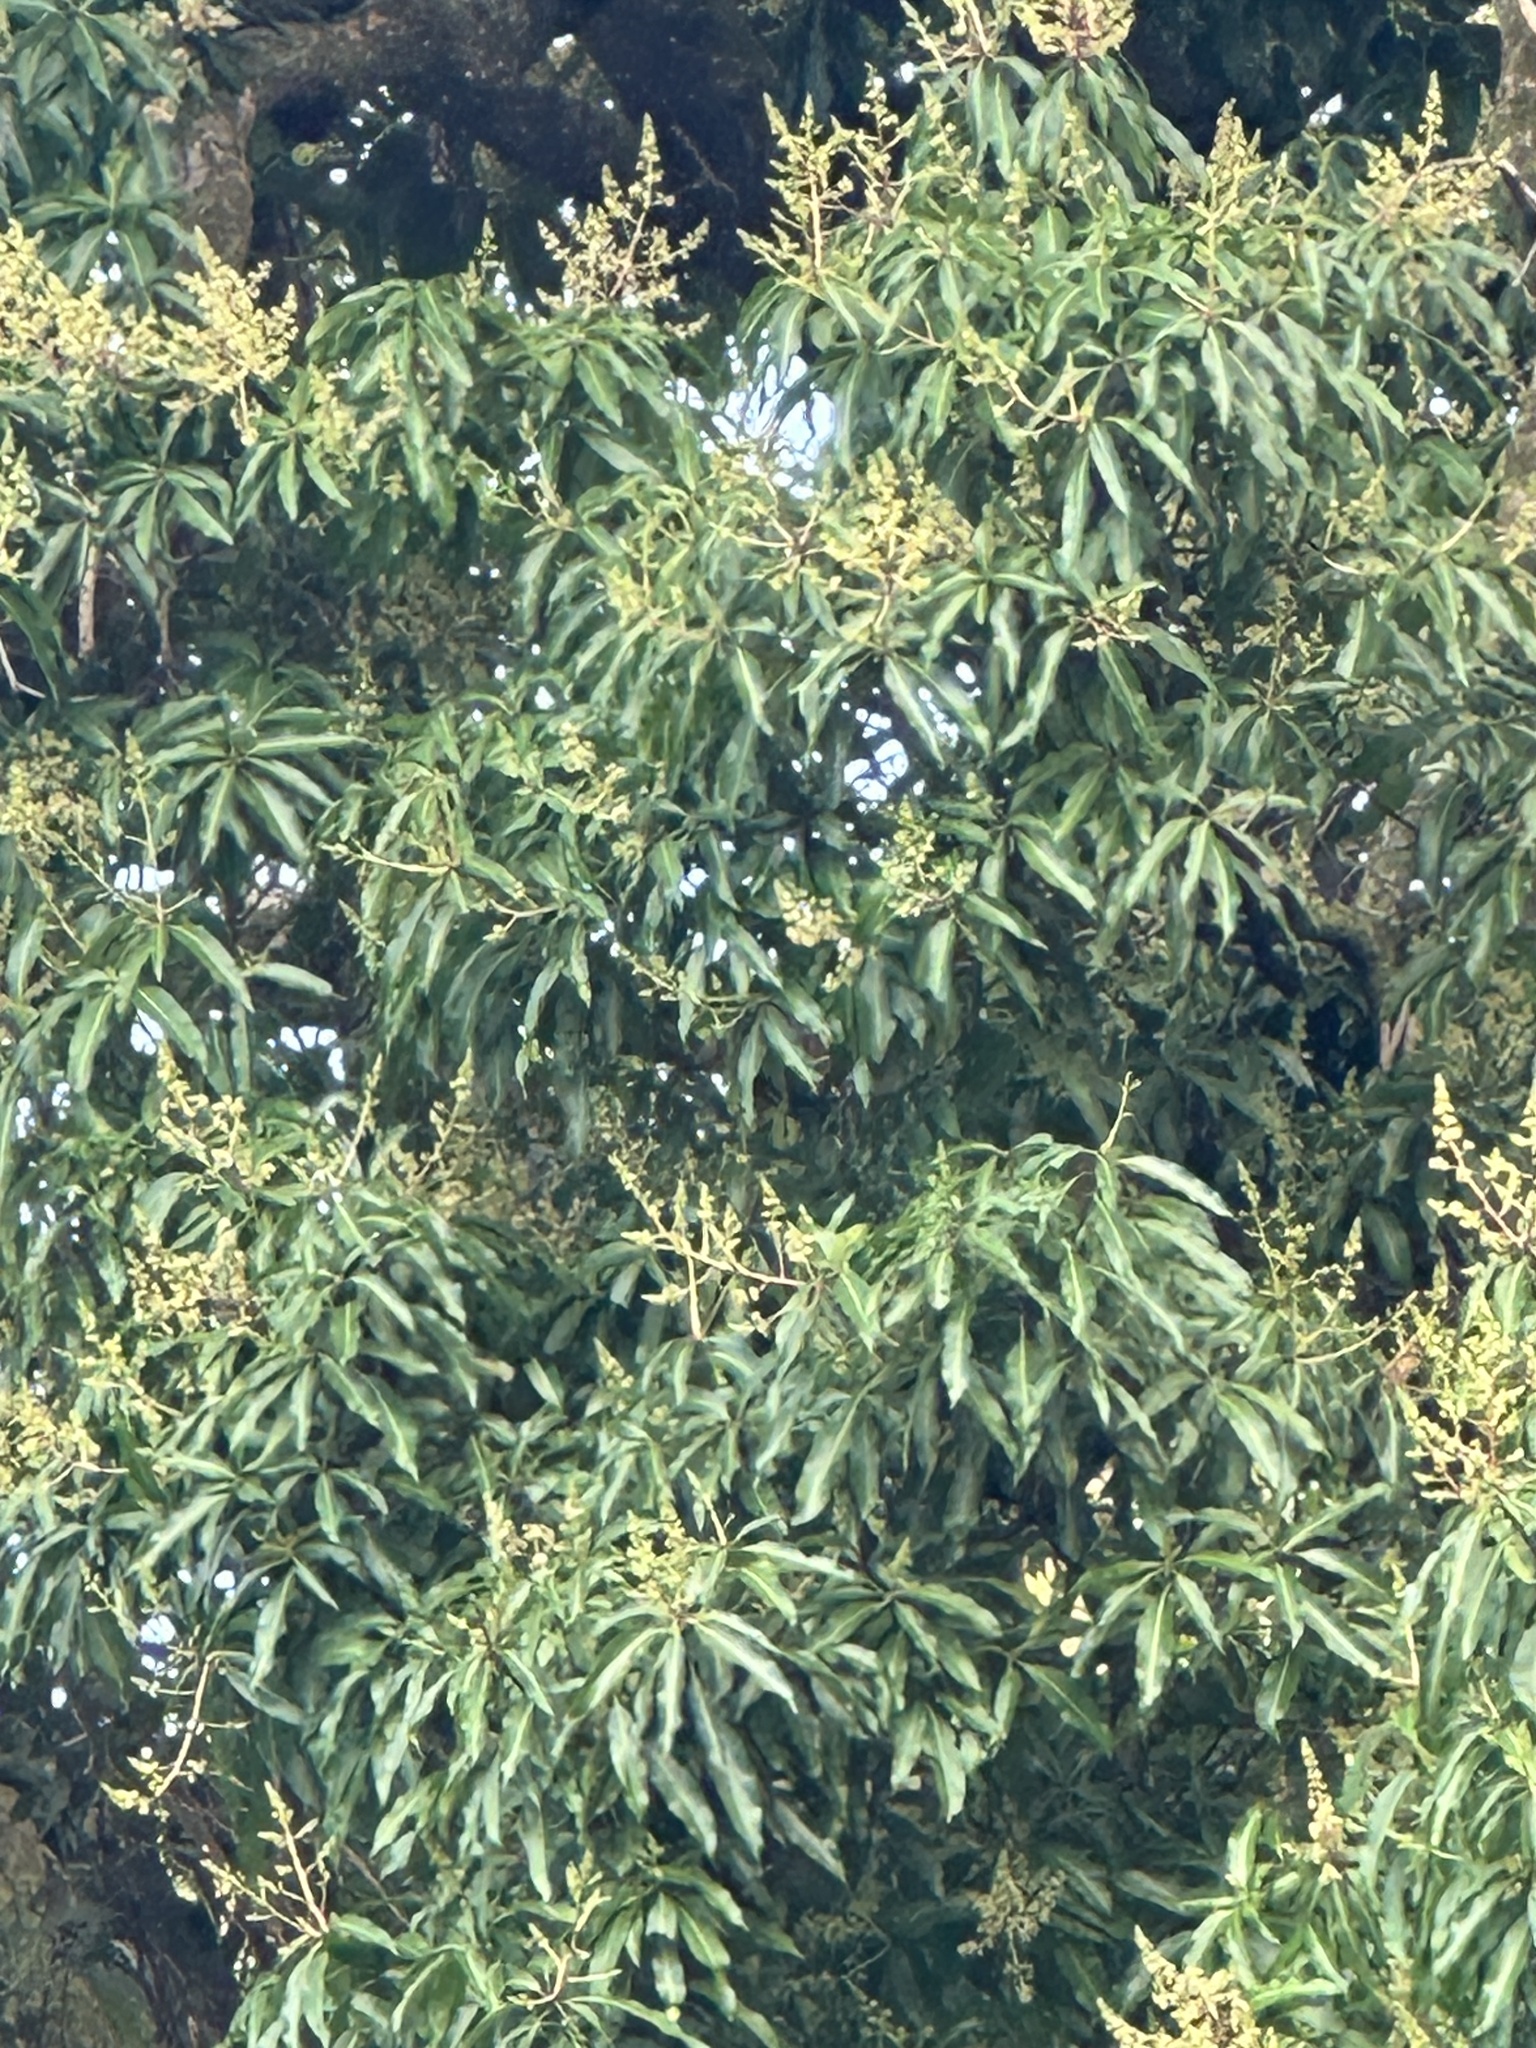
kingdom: Plantae
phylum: Tracheophyta
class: Magnoliopsida
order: Sapindales
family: Anacardiaceae
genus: Mangifera
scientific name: Mangifera indica
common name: Mango
